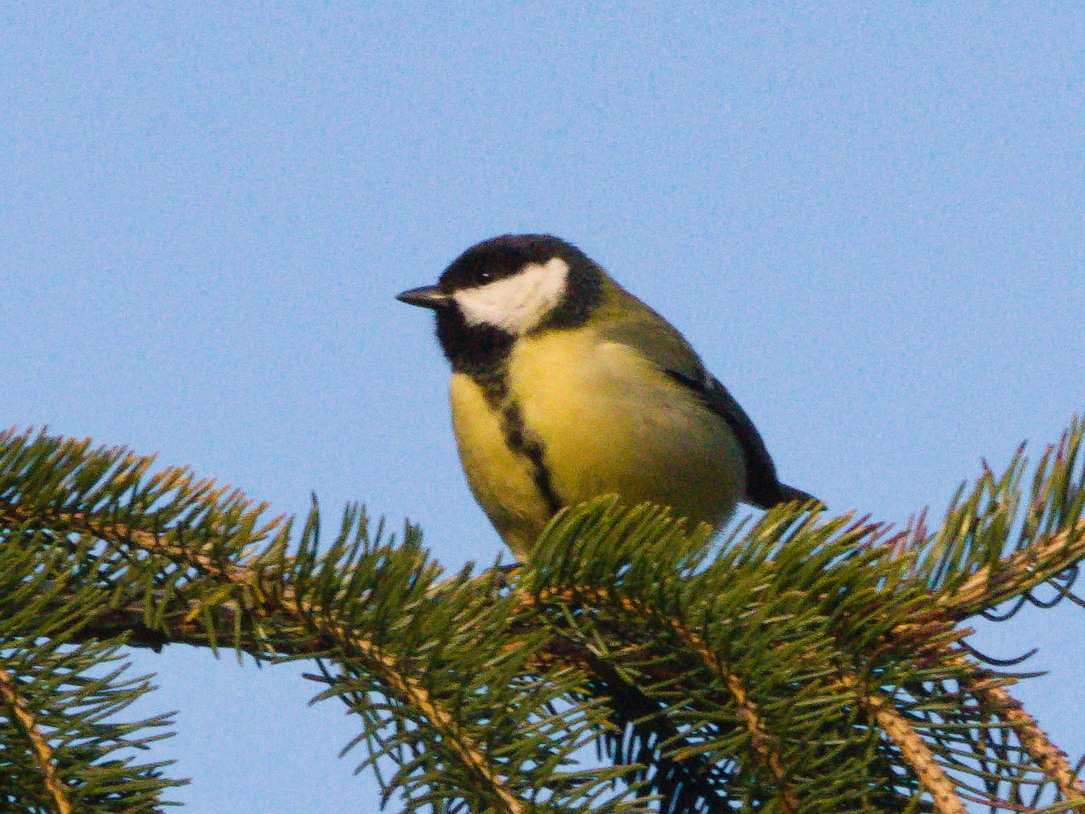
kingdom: Animalia
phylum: Chordata
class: Aves
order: Passeriformes
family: Paridae
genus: Parus
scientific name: Parus major
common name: Great tit
